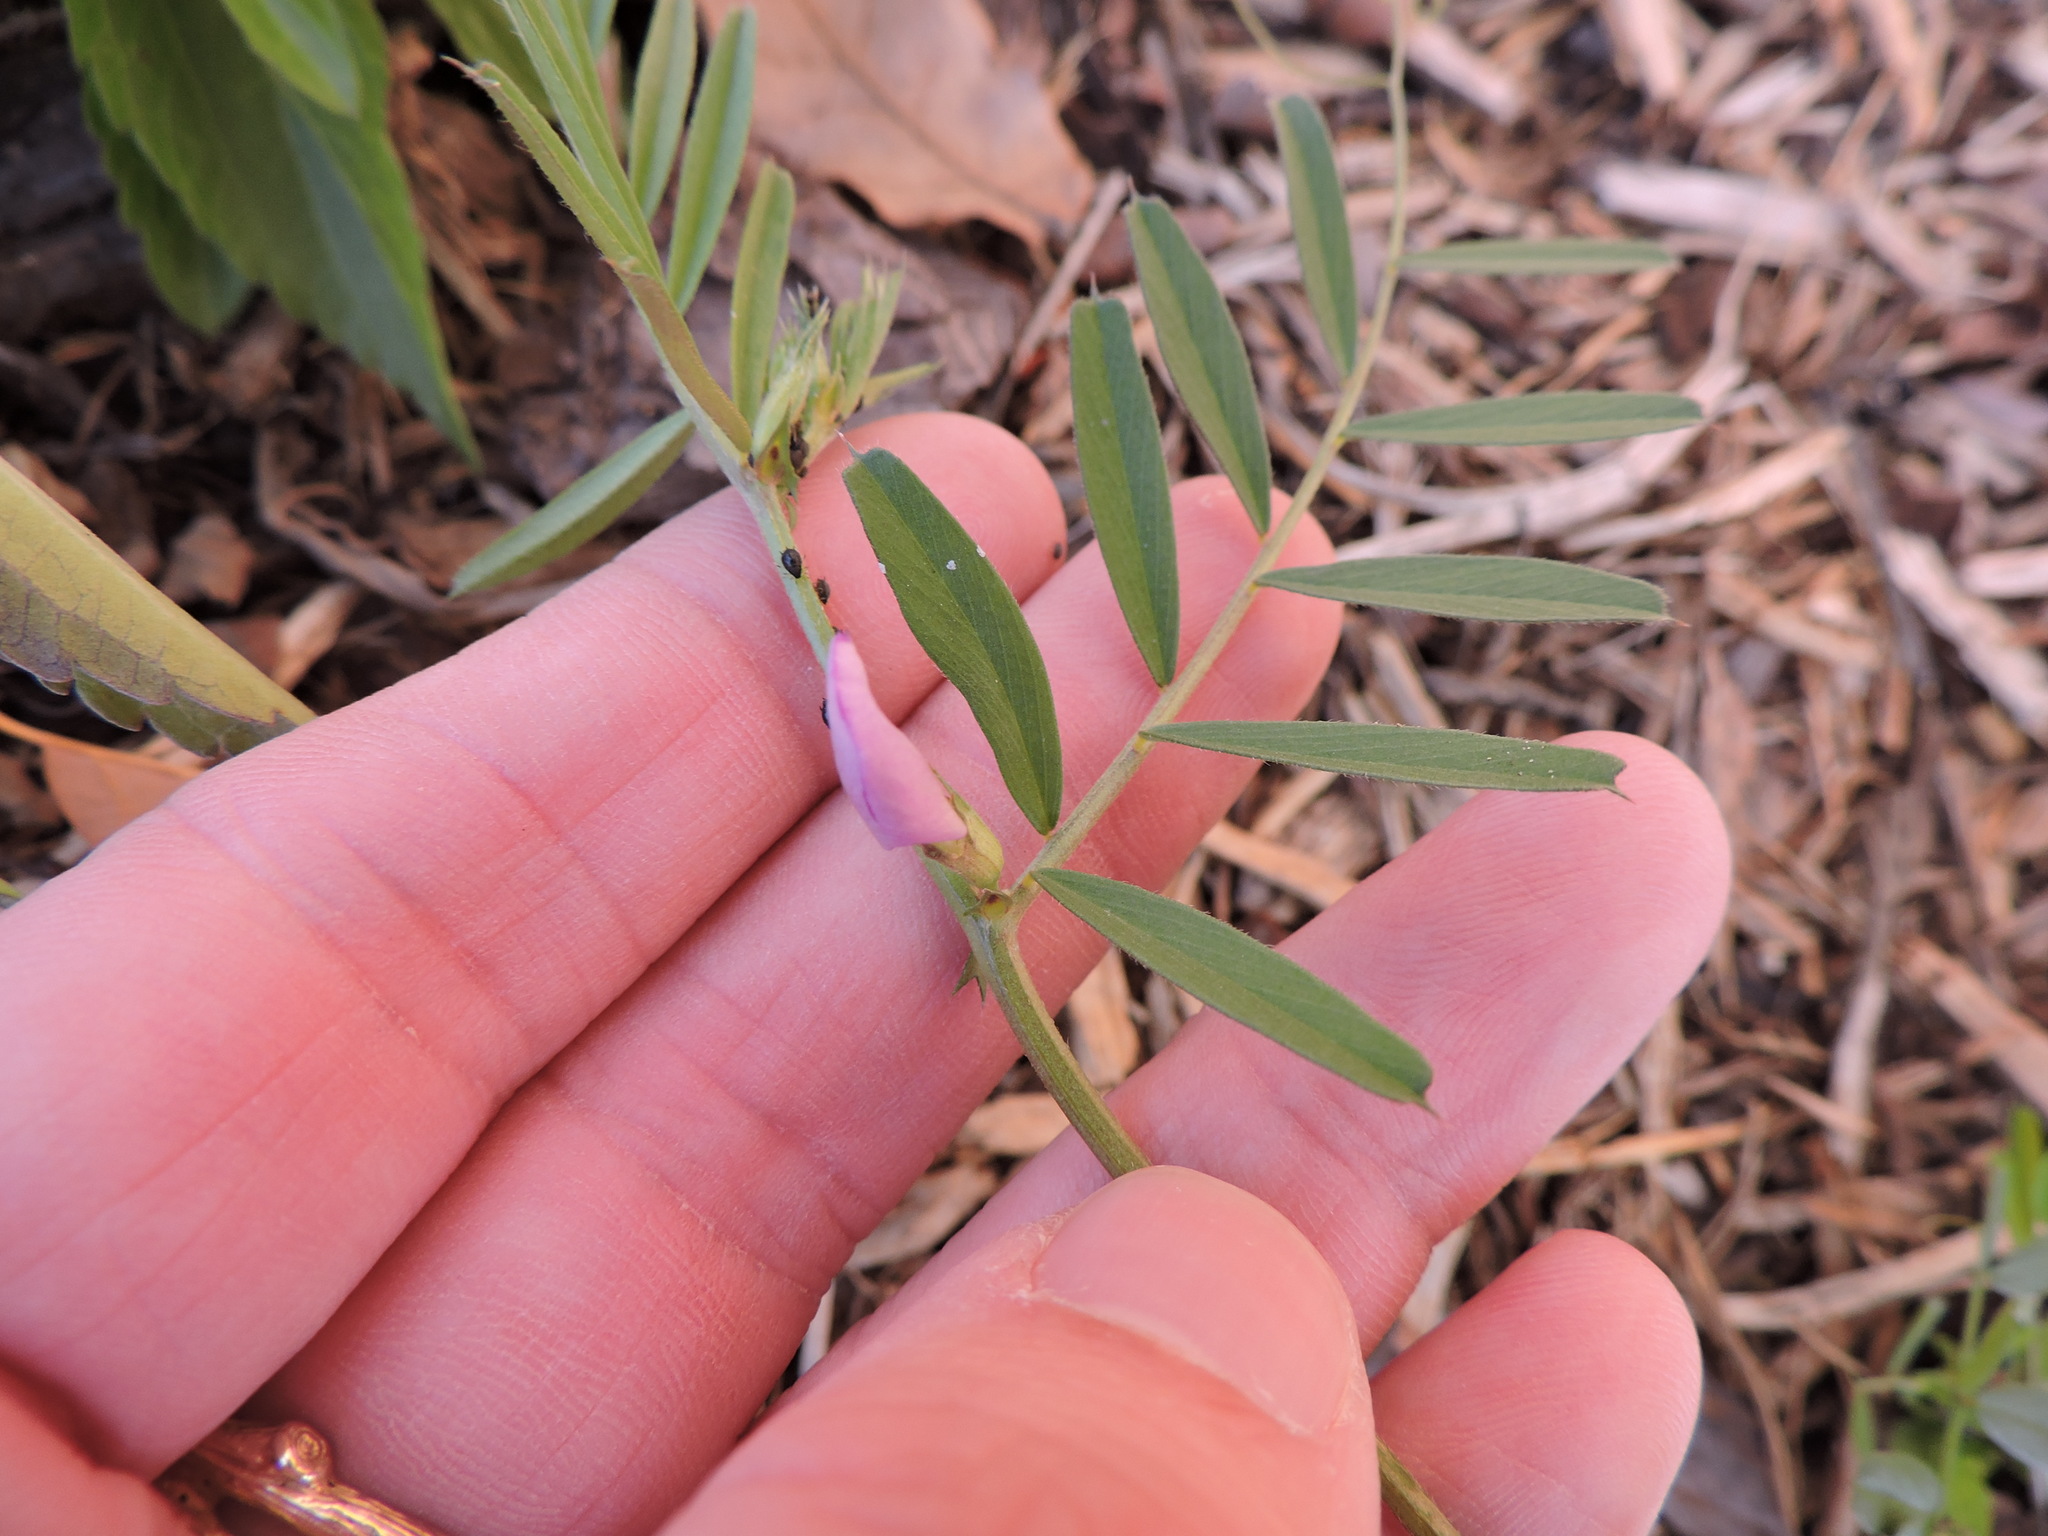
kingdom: Plantae
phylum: Tracheophyta
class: Magnoliopsida
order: Fabales
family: Fabaceae
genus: Vicia
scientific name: Vicia sativa
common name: Garden vetch
